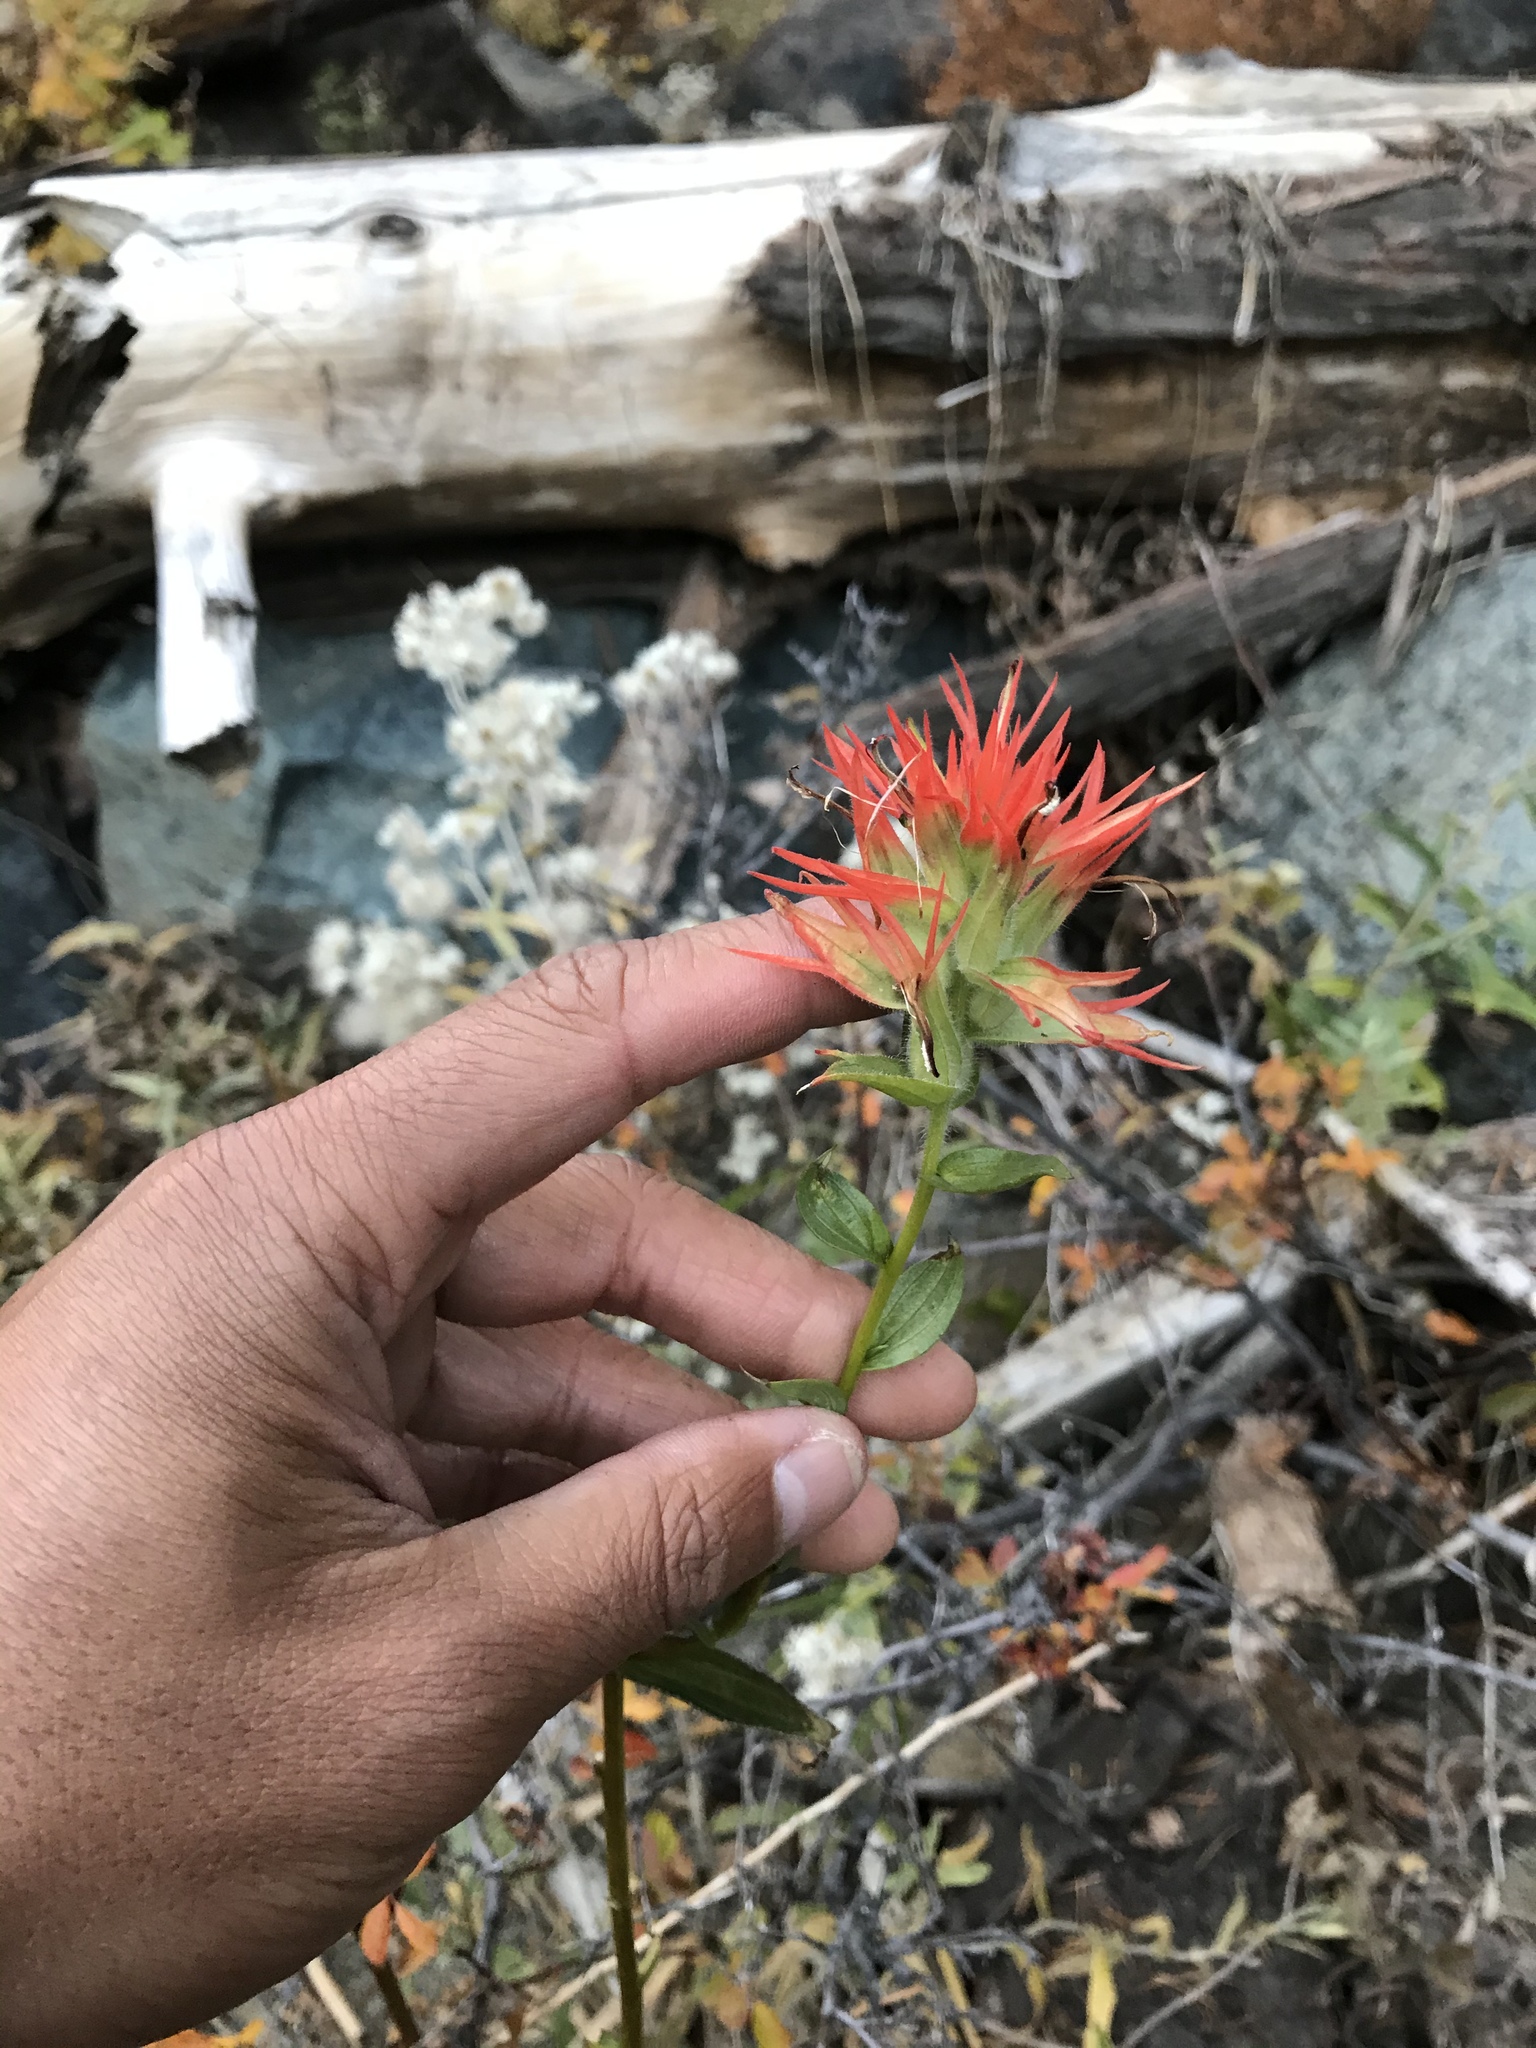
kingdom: Plantae
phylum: Tracheophyta
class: Magnoliopsida
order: Lamiales
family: Orobanchaceae
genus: Castilleja
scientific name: Castilleja miniata
